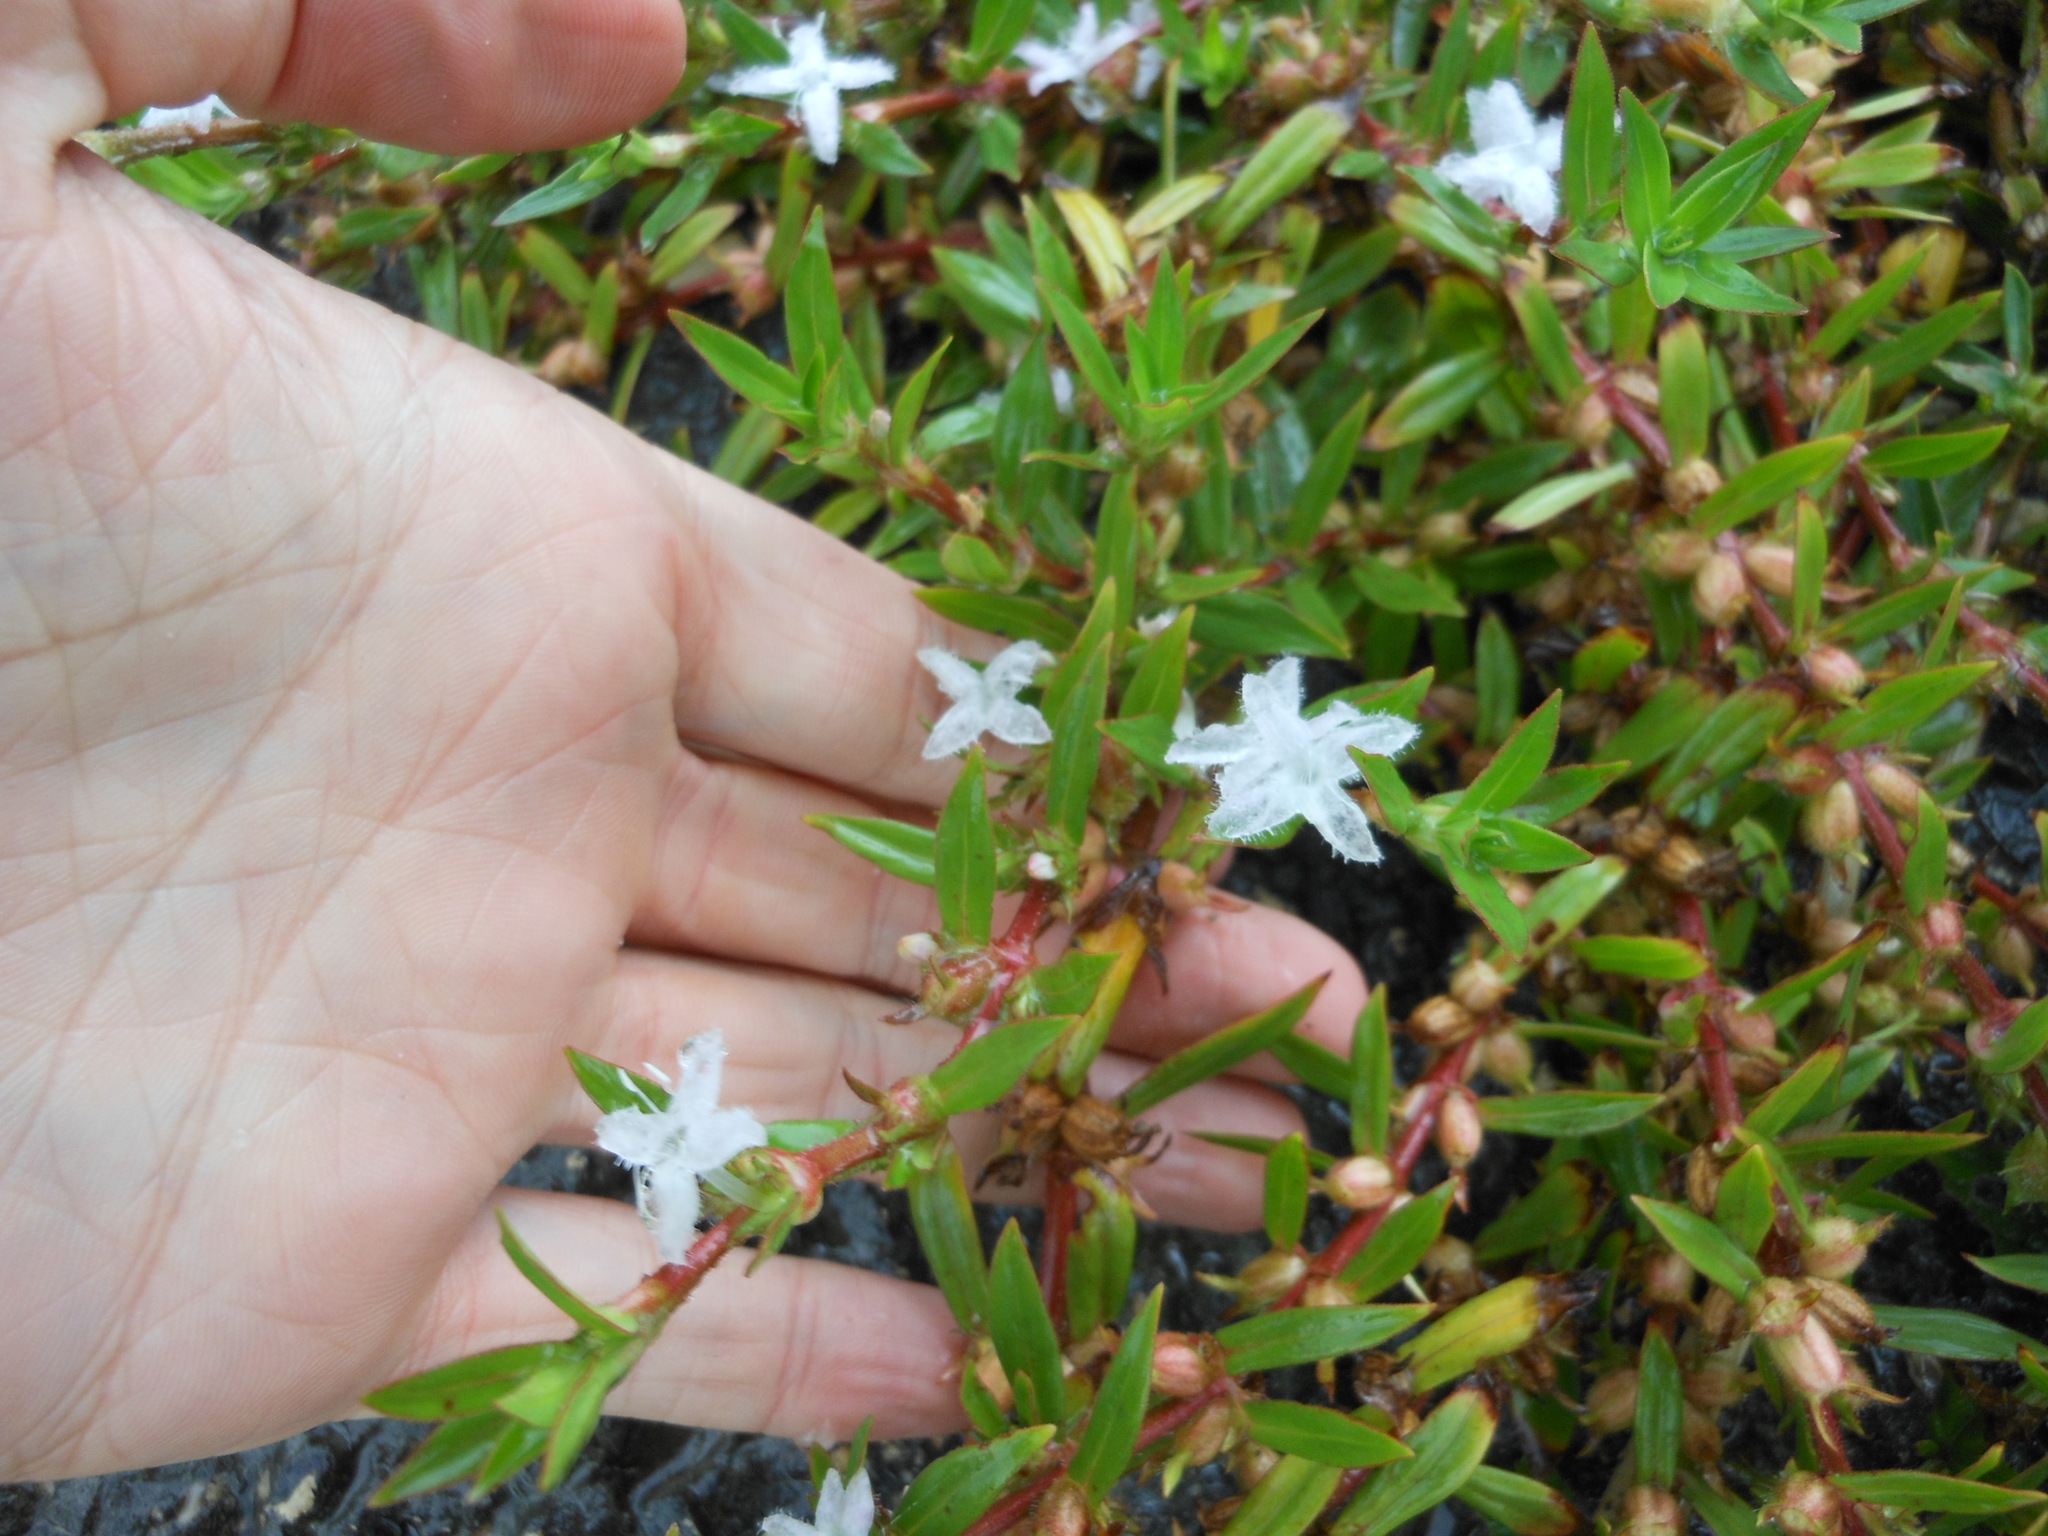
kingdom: Plantae
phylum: Tracheophyta
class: Magnoliopsida
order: Gentianales
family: Rubiaceae
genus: Diodia
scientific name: Diodia virginiana
